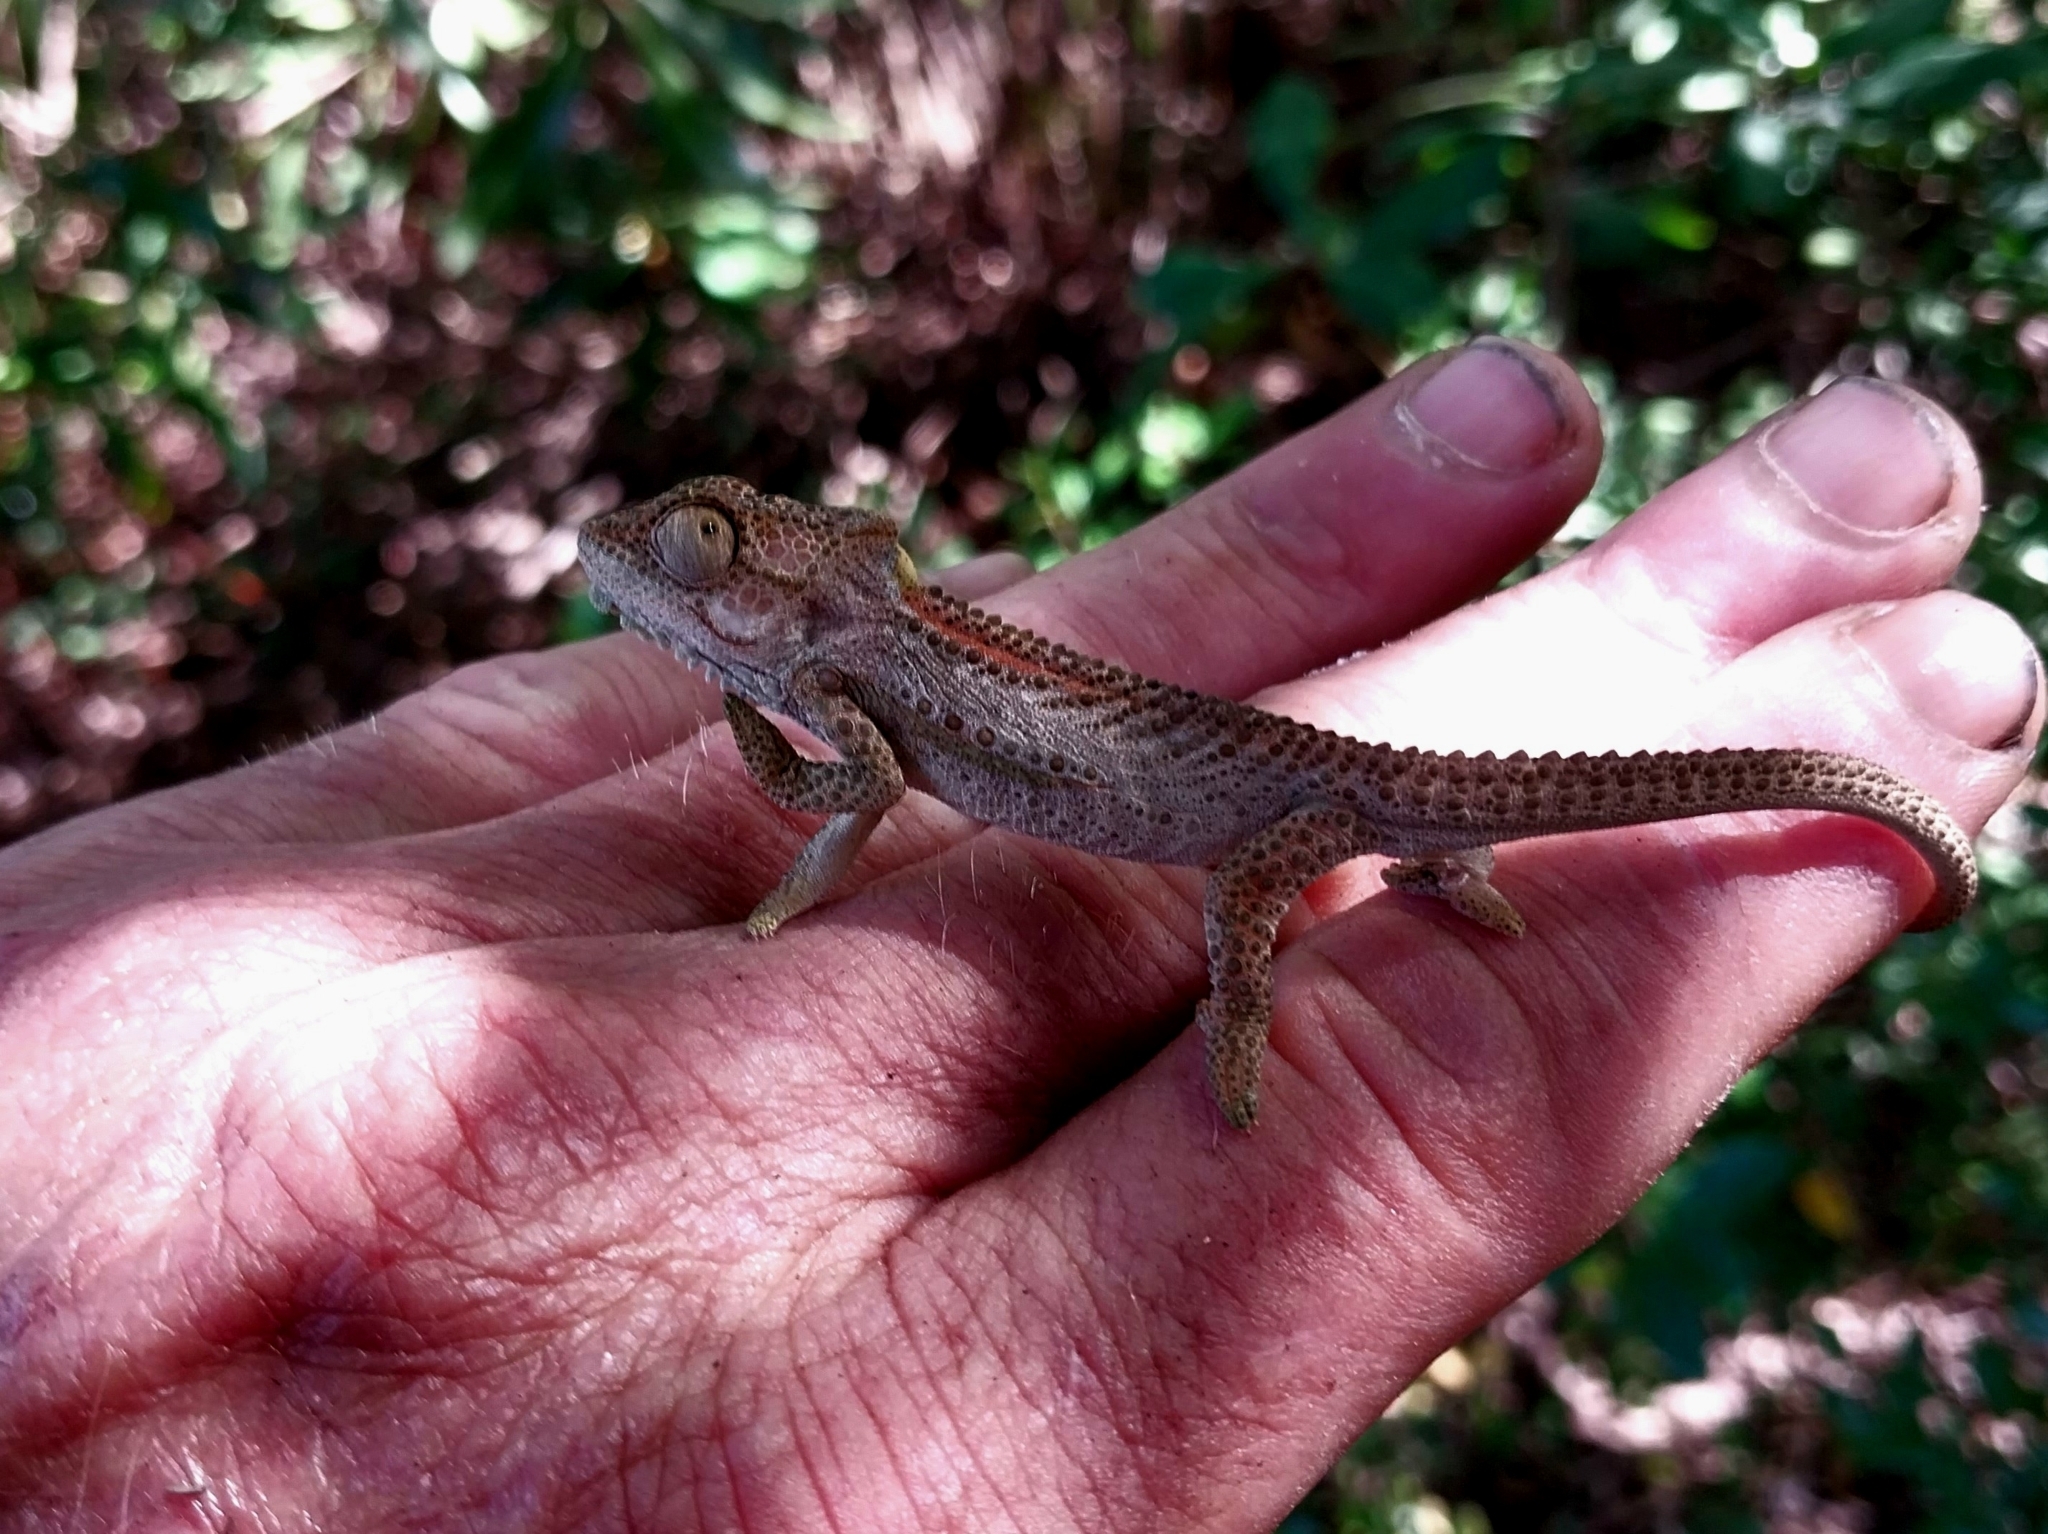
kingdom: Animalia
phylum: Chordata
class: Squamata
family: Chamaeleonidae
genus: Bradypodion
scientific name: Bradypodion damaranum
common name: Knysna dwarf chameleon
